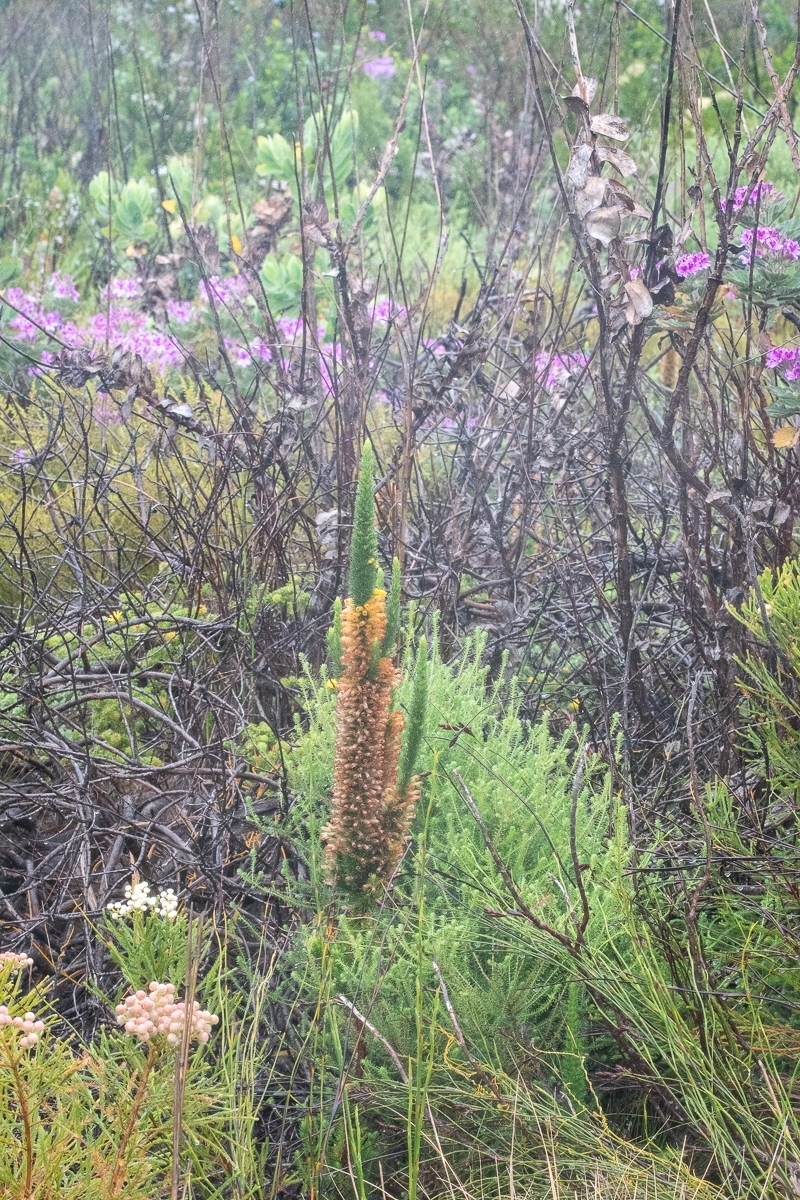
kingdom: Plantae
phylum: Tracheophyta
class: Magnoliopsida
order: Ericales
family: Ericaceae
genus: Erica
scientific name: Erica patersonia
